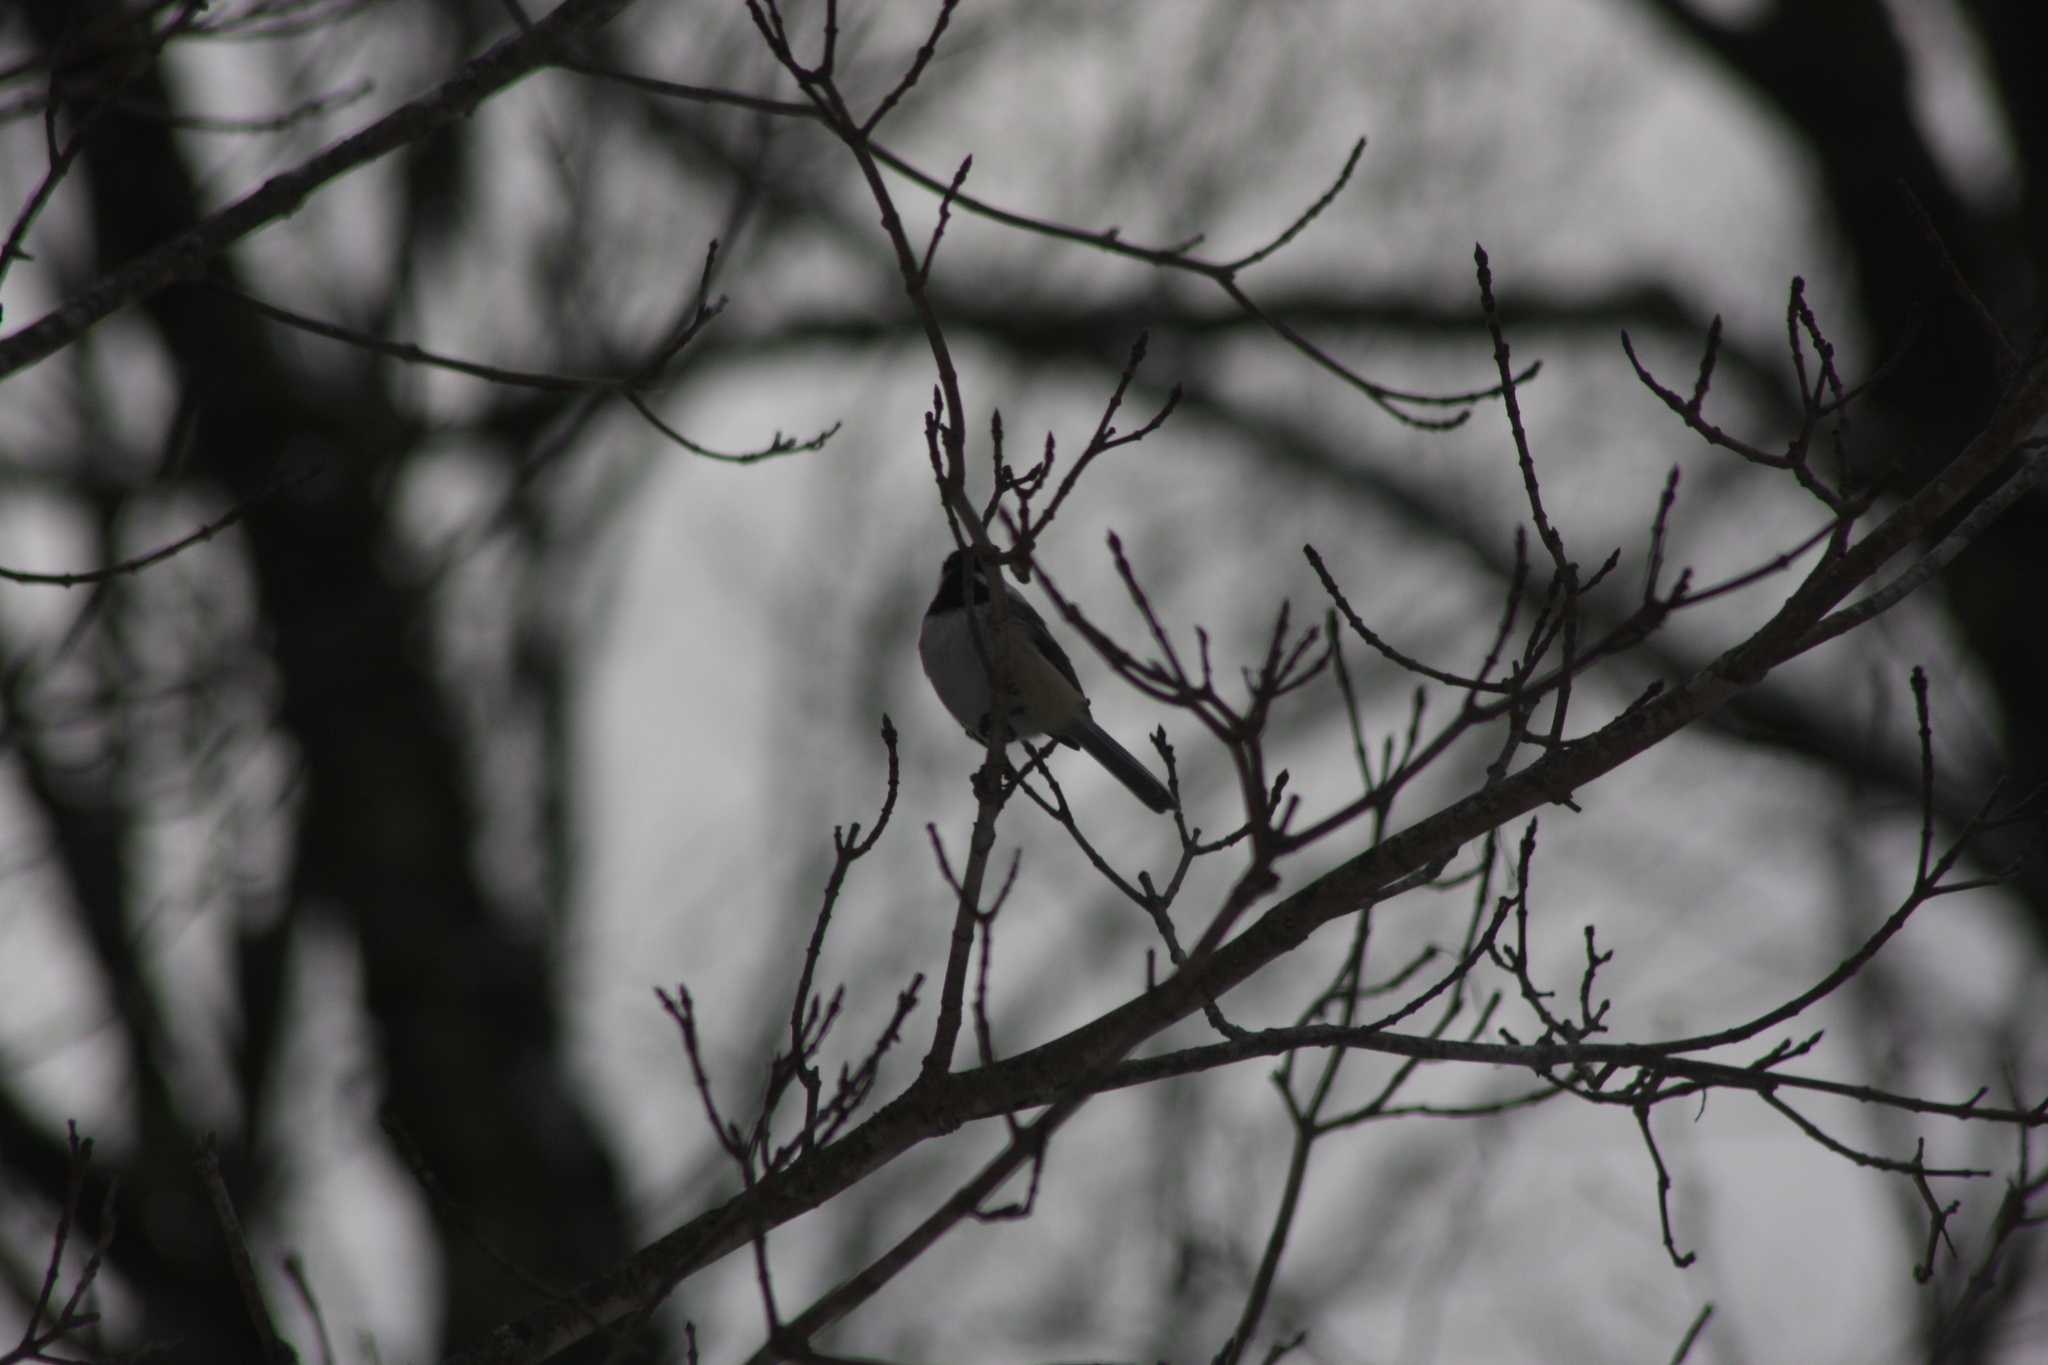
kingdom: Animalia
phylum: Chordata
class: Aves
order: Passeriformes
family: Paridae
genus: Poecile
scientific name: Poecile atricapillus
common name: Black-capped chickadee
